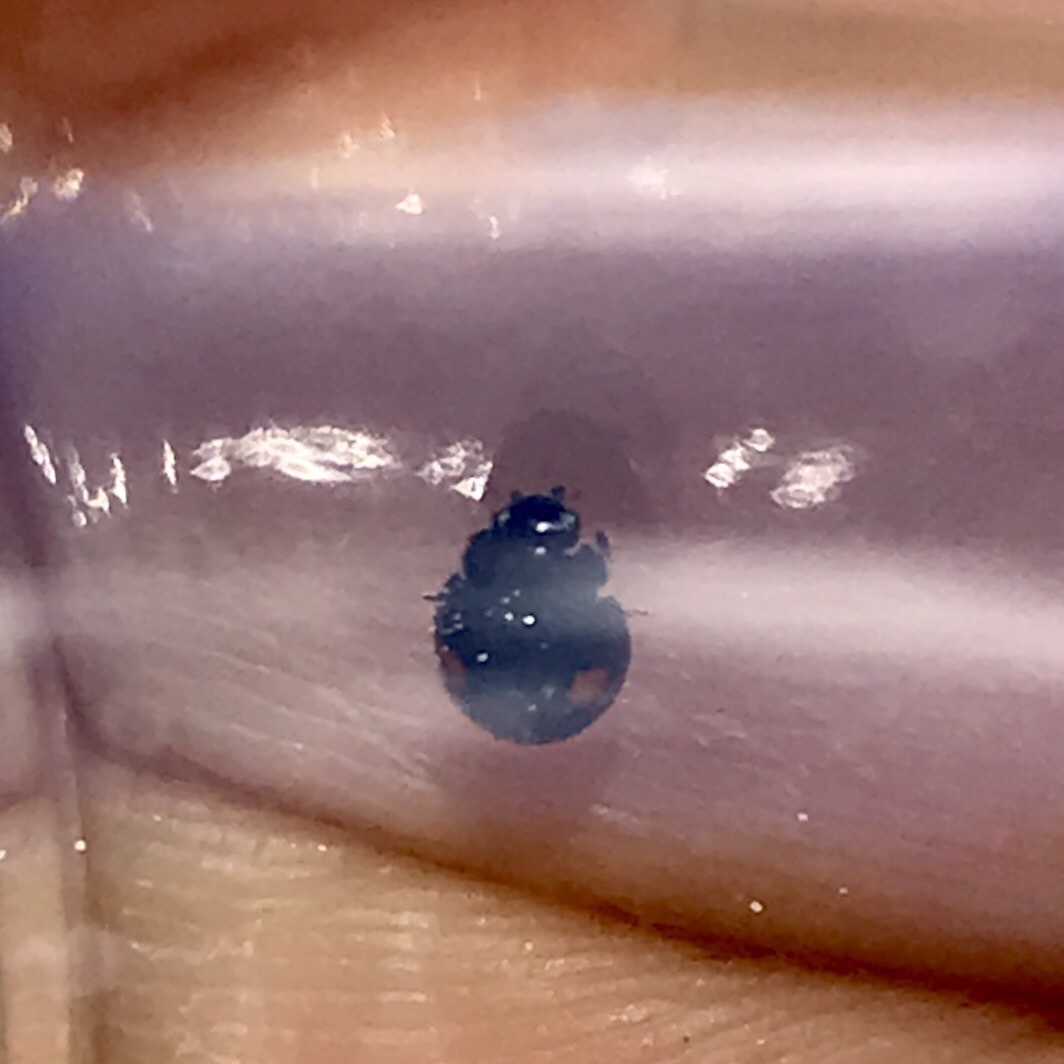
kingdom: Animalia
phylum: Arthropoda
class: Insecta
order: Coleoptera
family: Coccinellidae
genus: Chilocorus
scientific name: Chilocorus stigma
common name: Twicestabbed lady beetle
